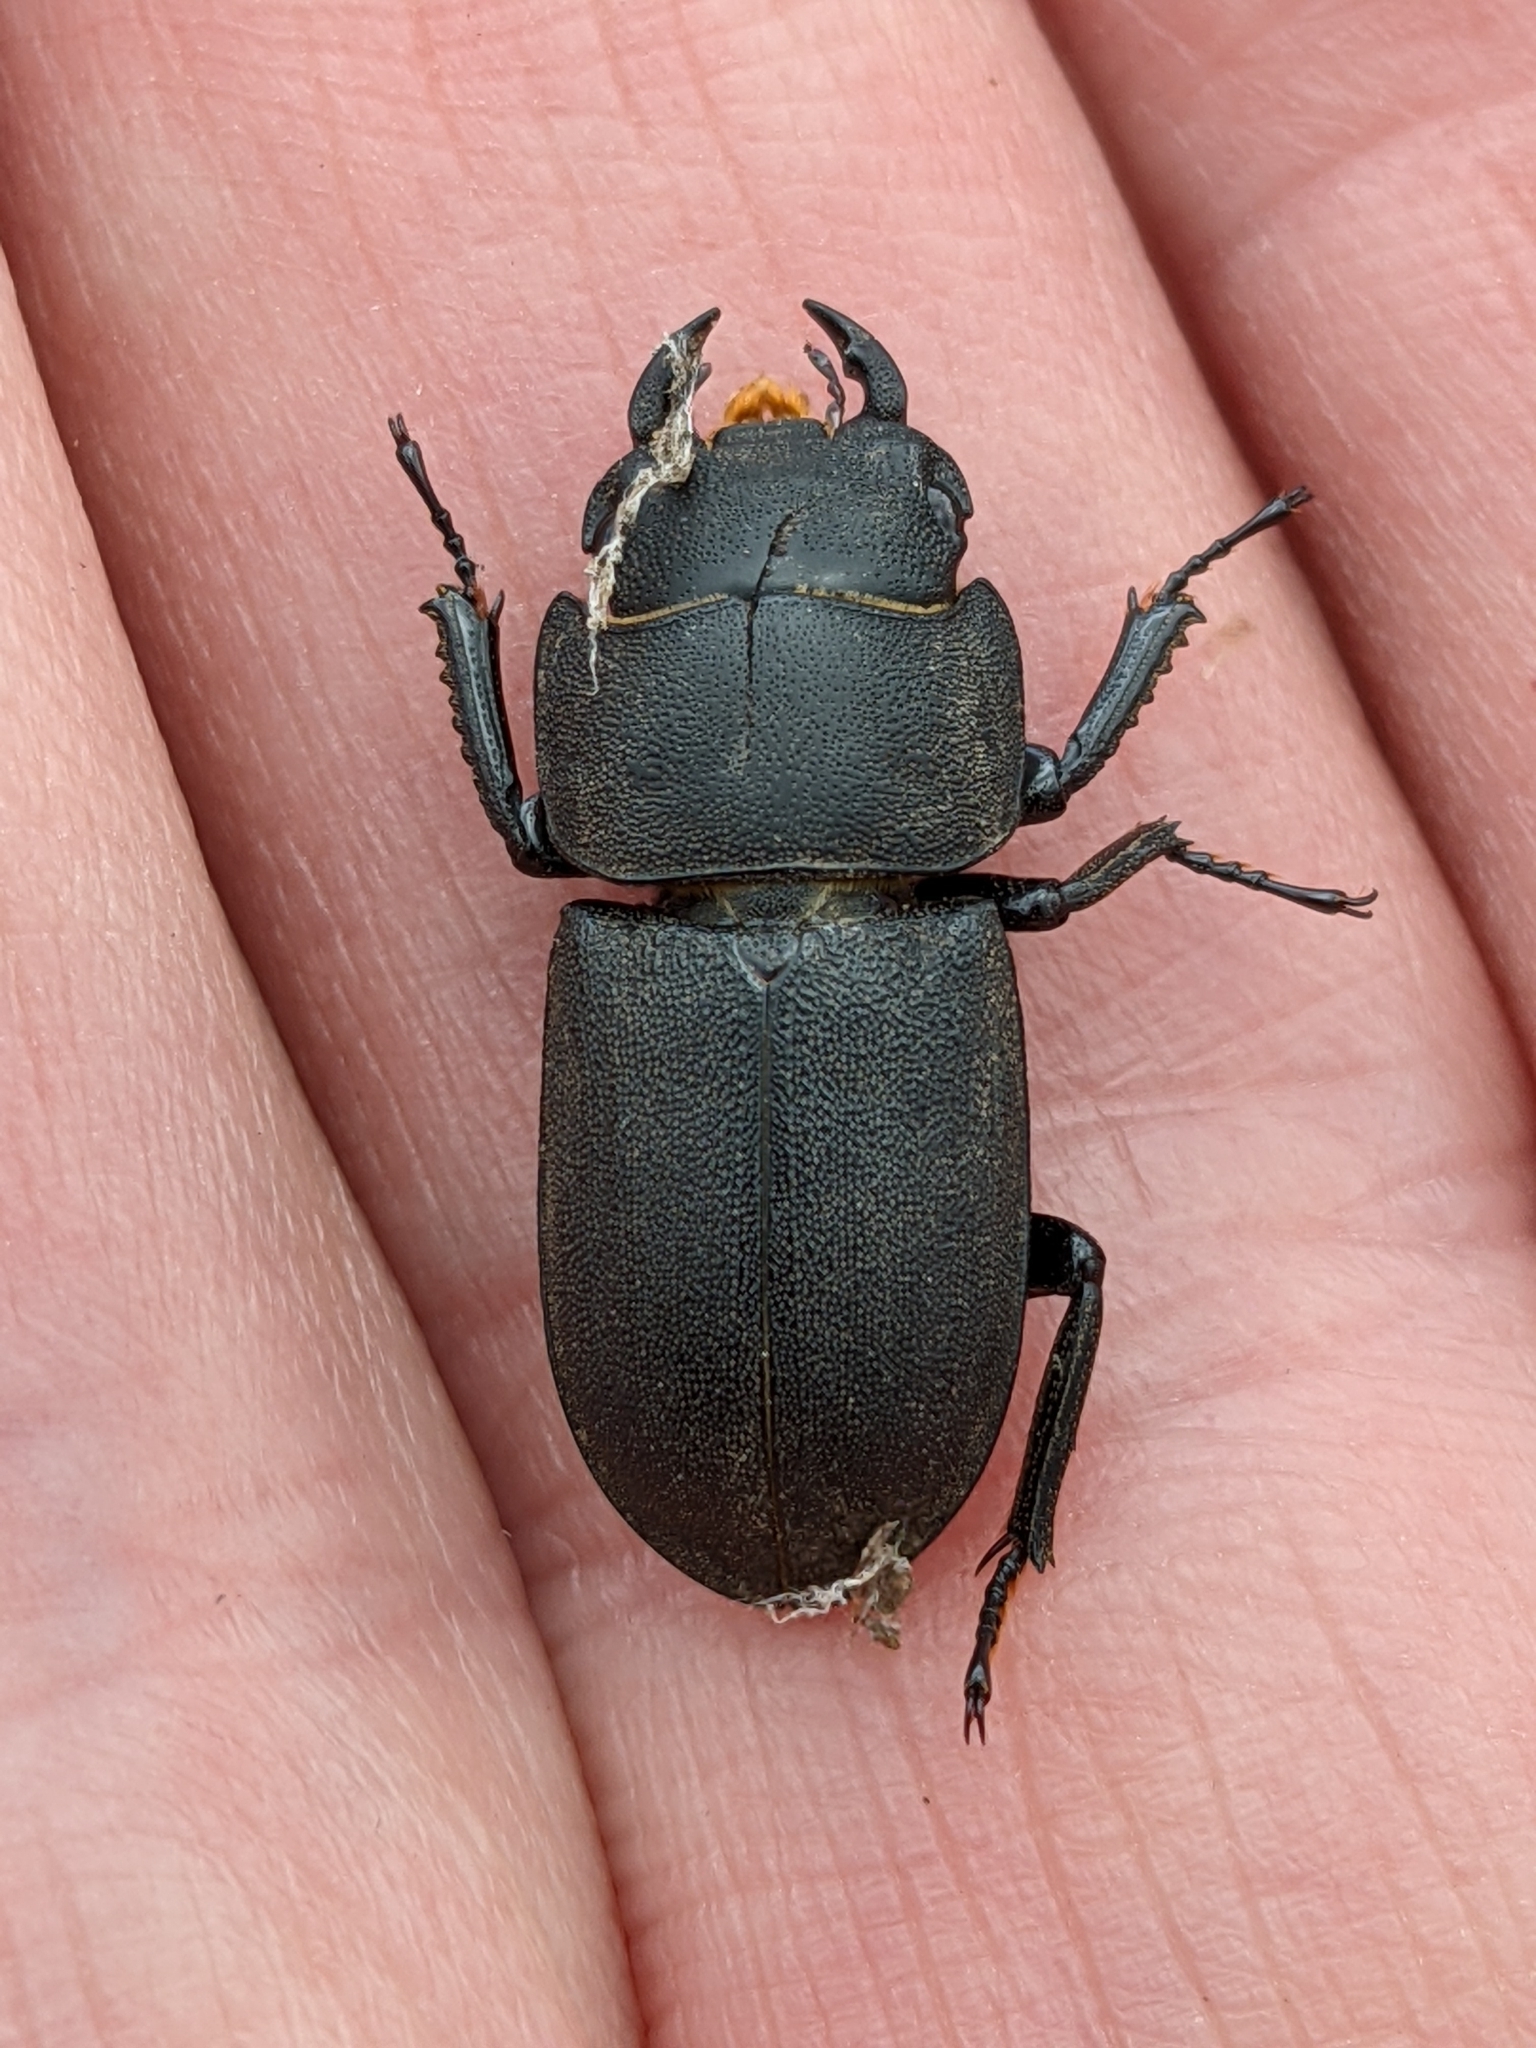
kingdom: Animalia
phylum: Arthropoda
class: Insecta
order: Coleoptera
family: Lucanidae
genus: Dorcus
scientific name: Dorcus parallelipipedus
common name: Lesser stag beetle
